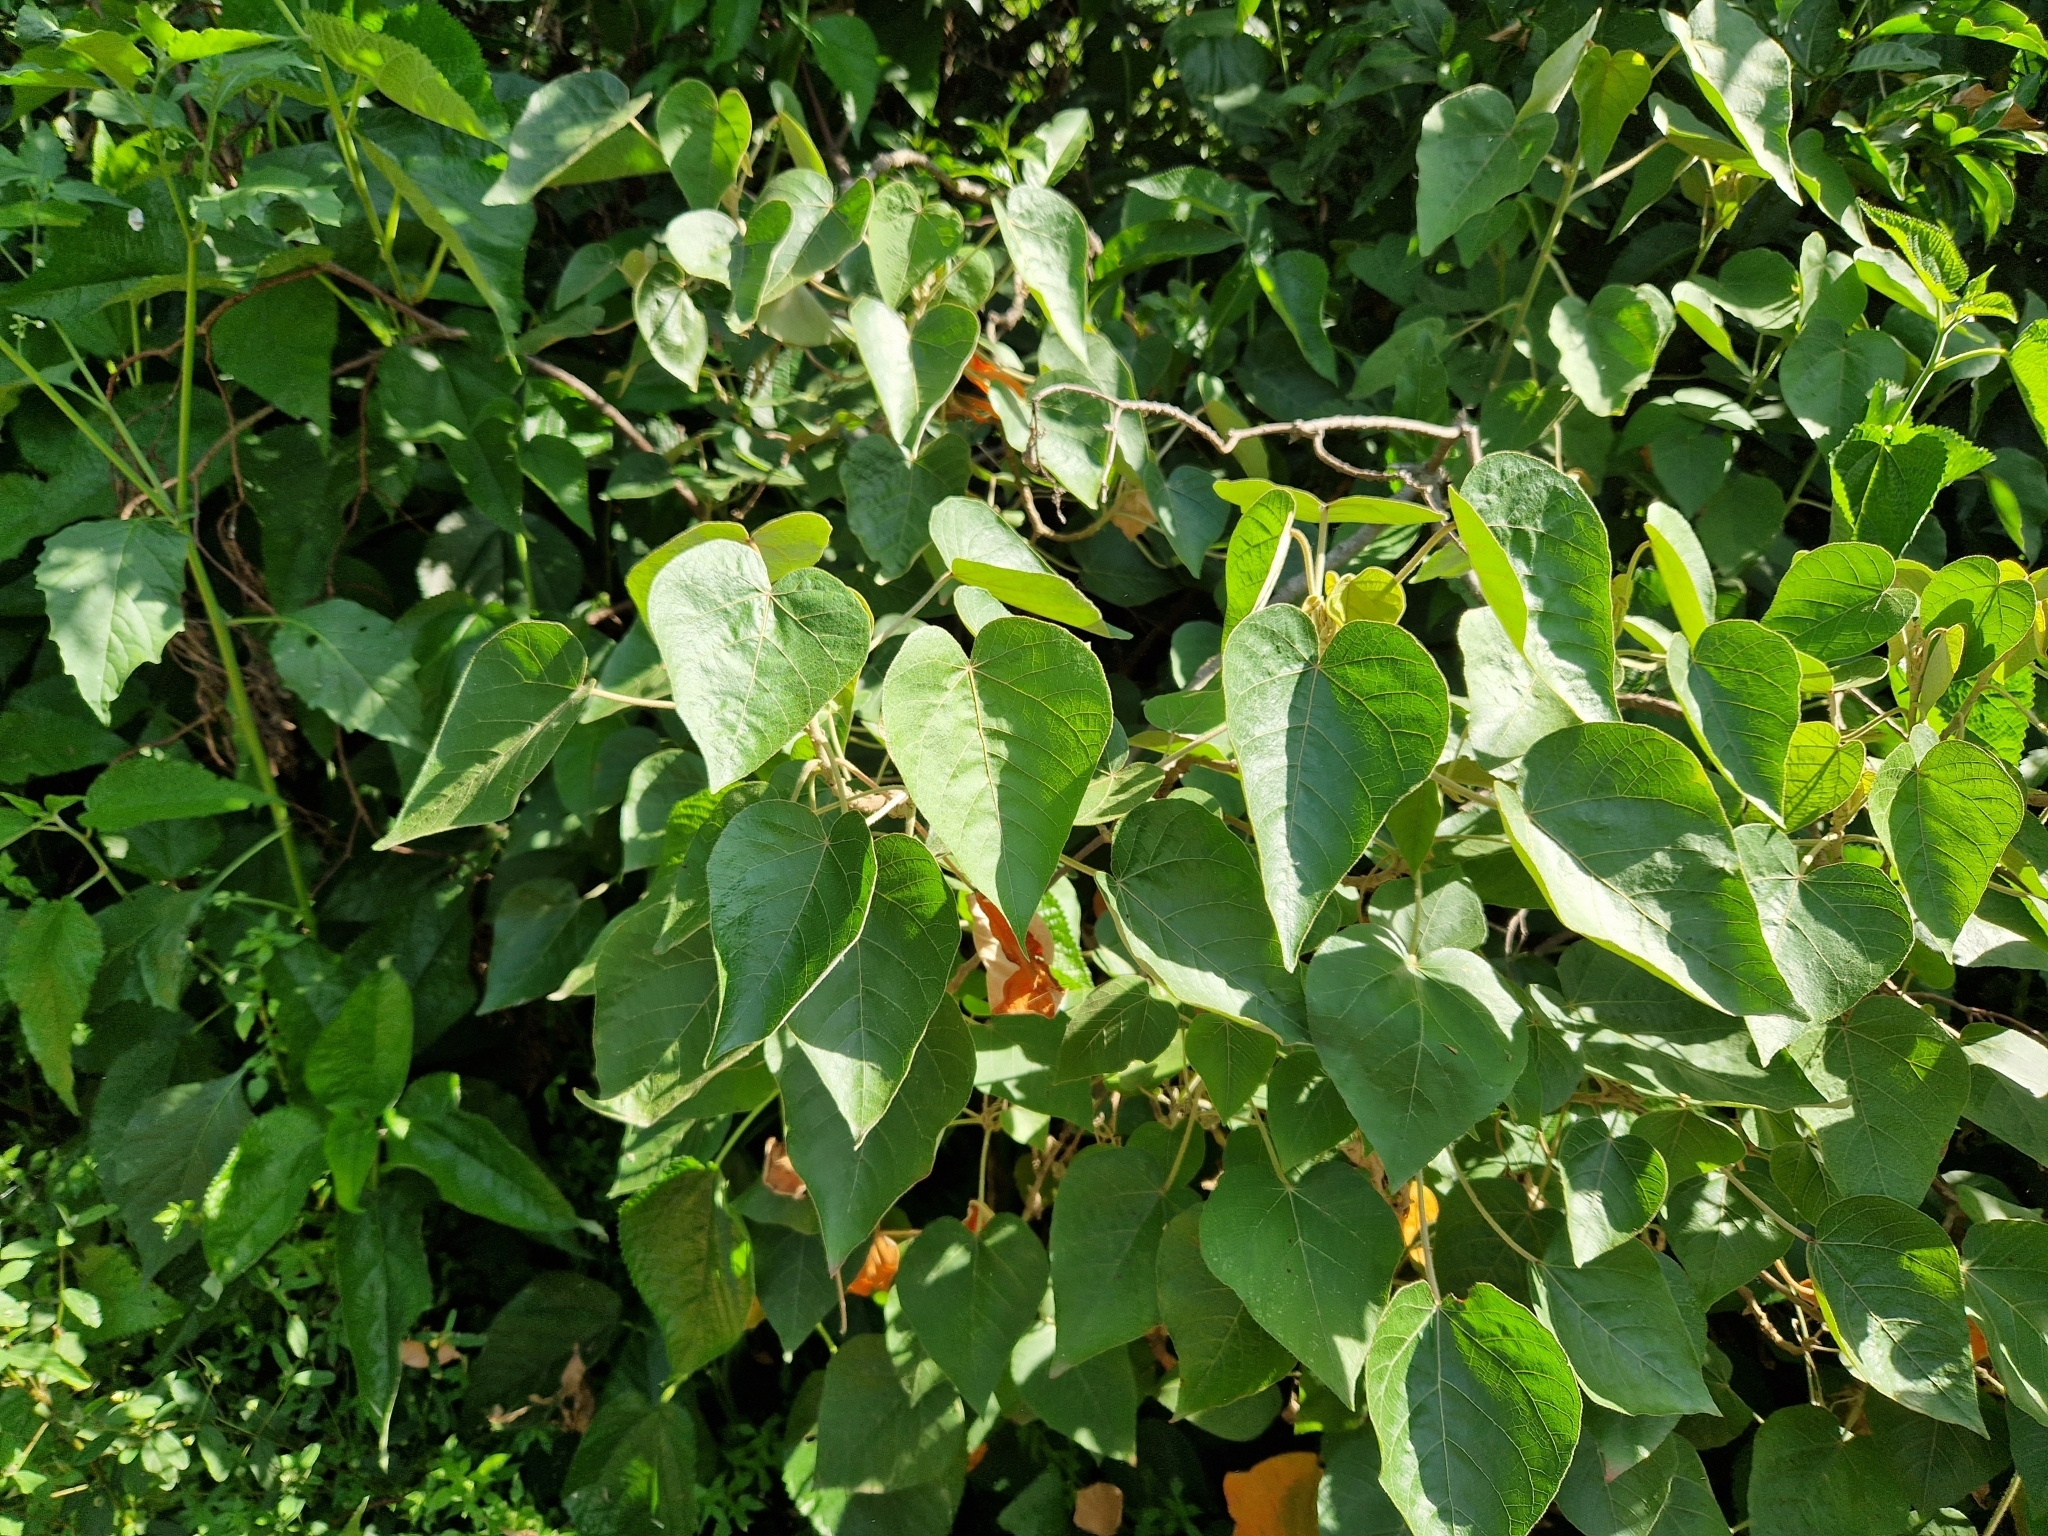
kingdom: Plantae
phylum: Tracheophyta
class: Magnoliopsida
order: Malpighiales
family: Euphorbiaceae
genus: Croton
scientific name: Croton urucurana
